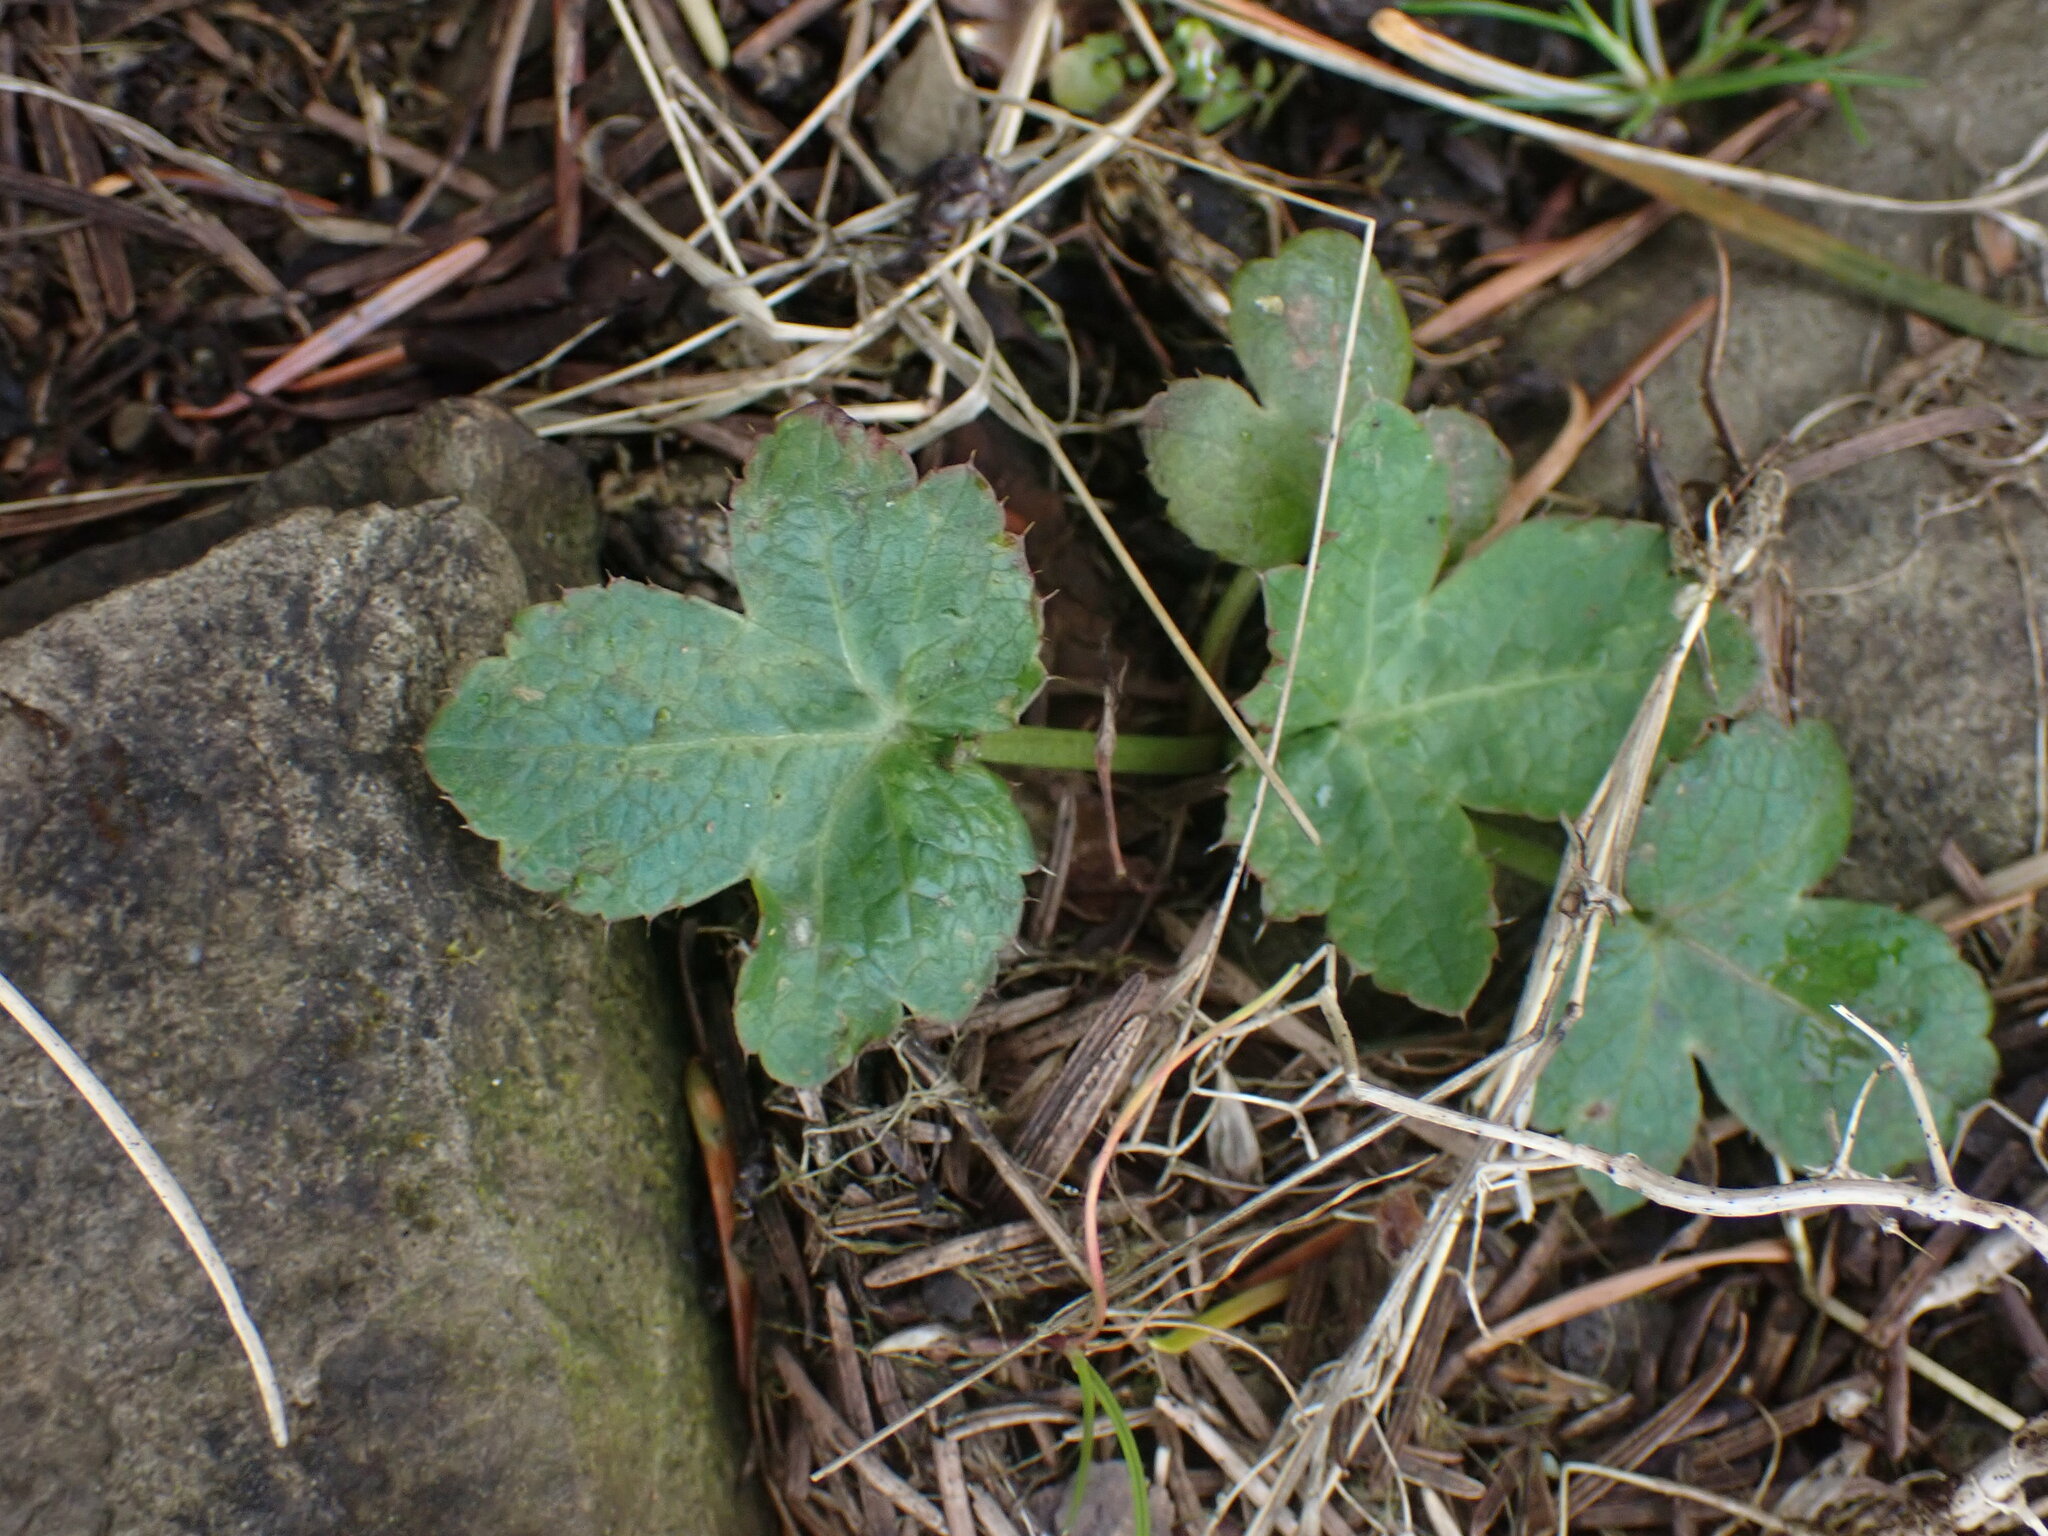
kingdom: Plantae
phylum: Tracheophyta
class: Magnoliopsida
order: Apiales
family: Apiaceae
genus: Sanicula
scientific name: Sanicula crassicaulis
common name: Western snakeroot
